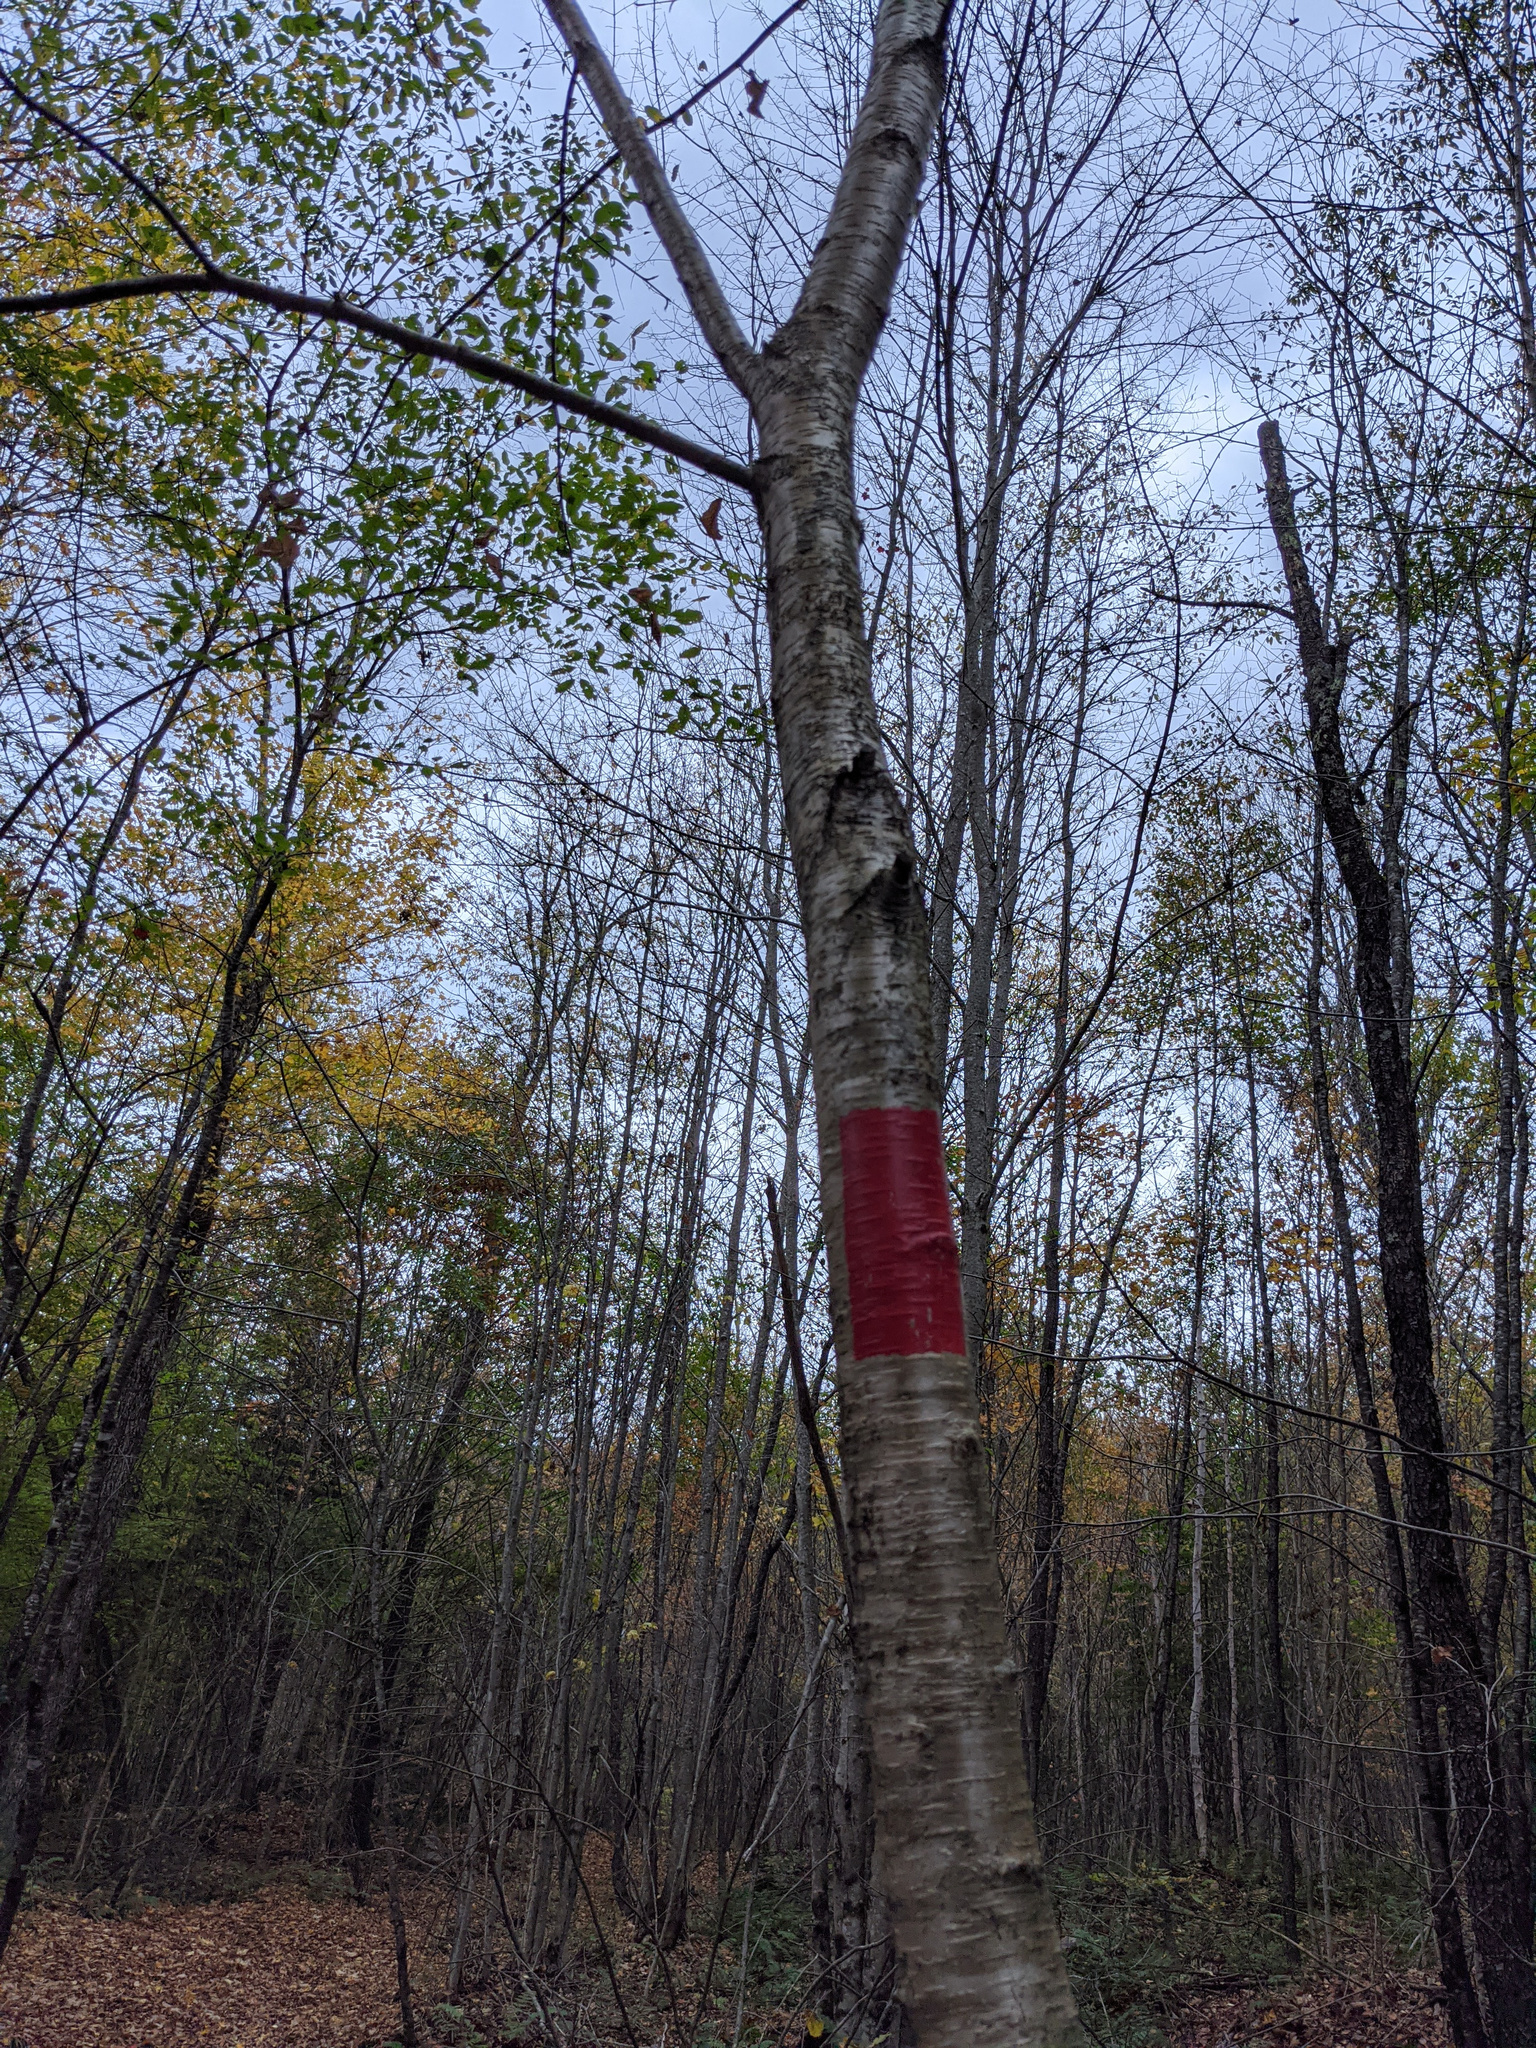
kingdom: Plantae
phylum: Tracheophyta
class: Magnoliopsida
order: Fagales
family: Betulaceae
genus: Betula
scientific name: Betula alleghaniensis
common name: Yellow birch
